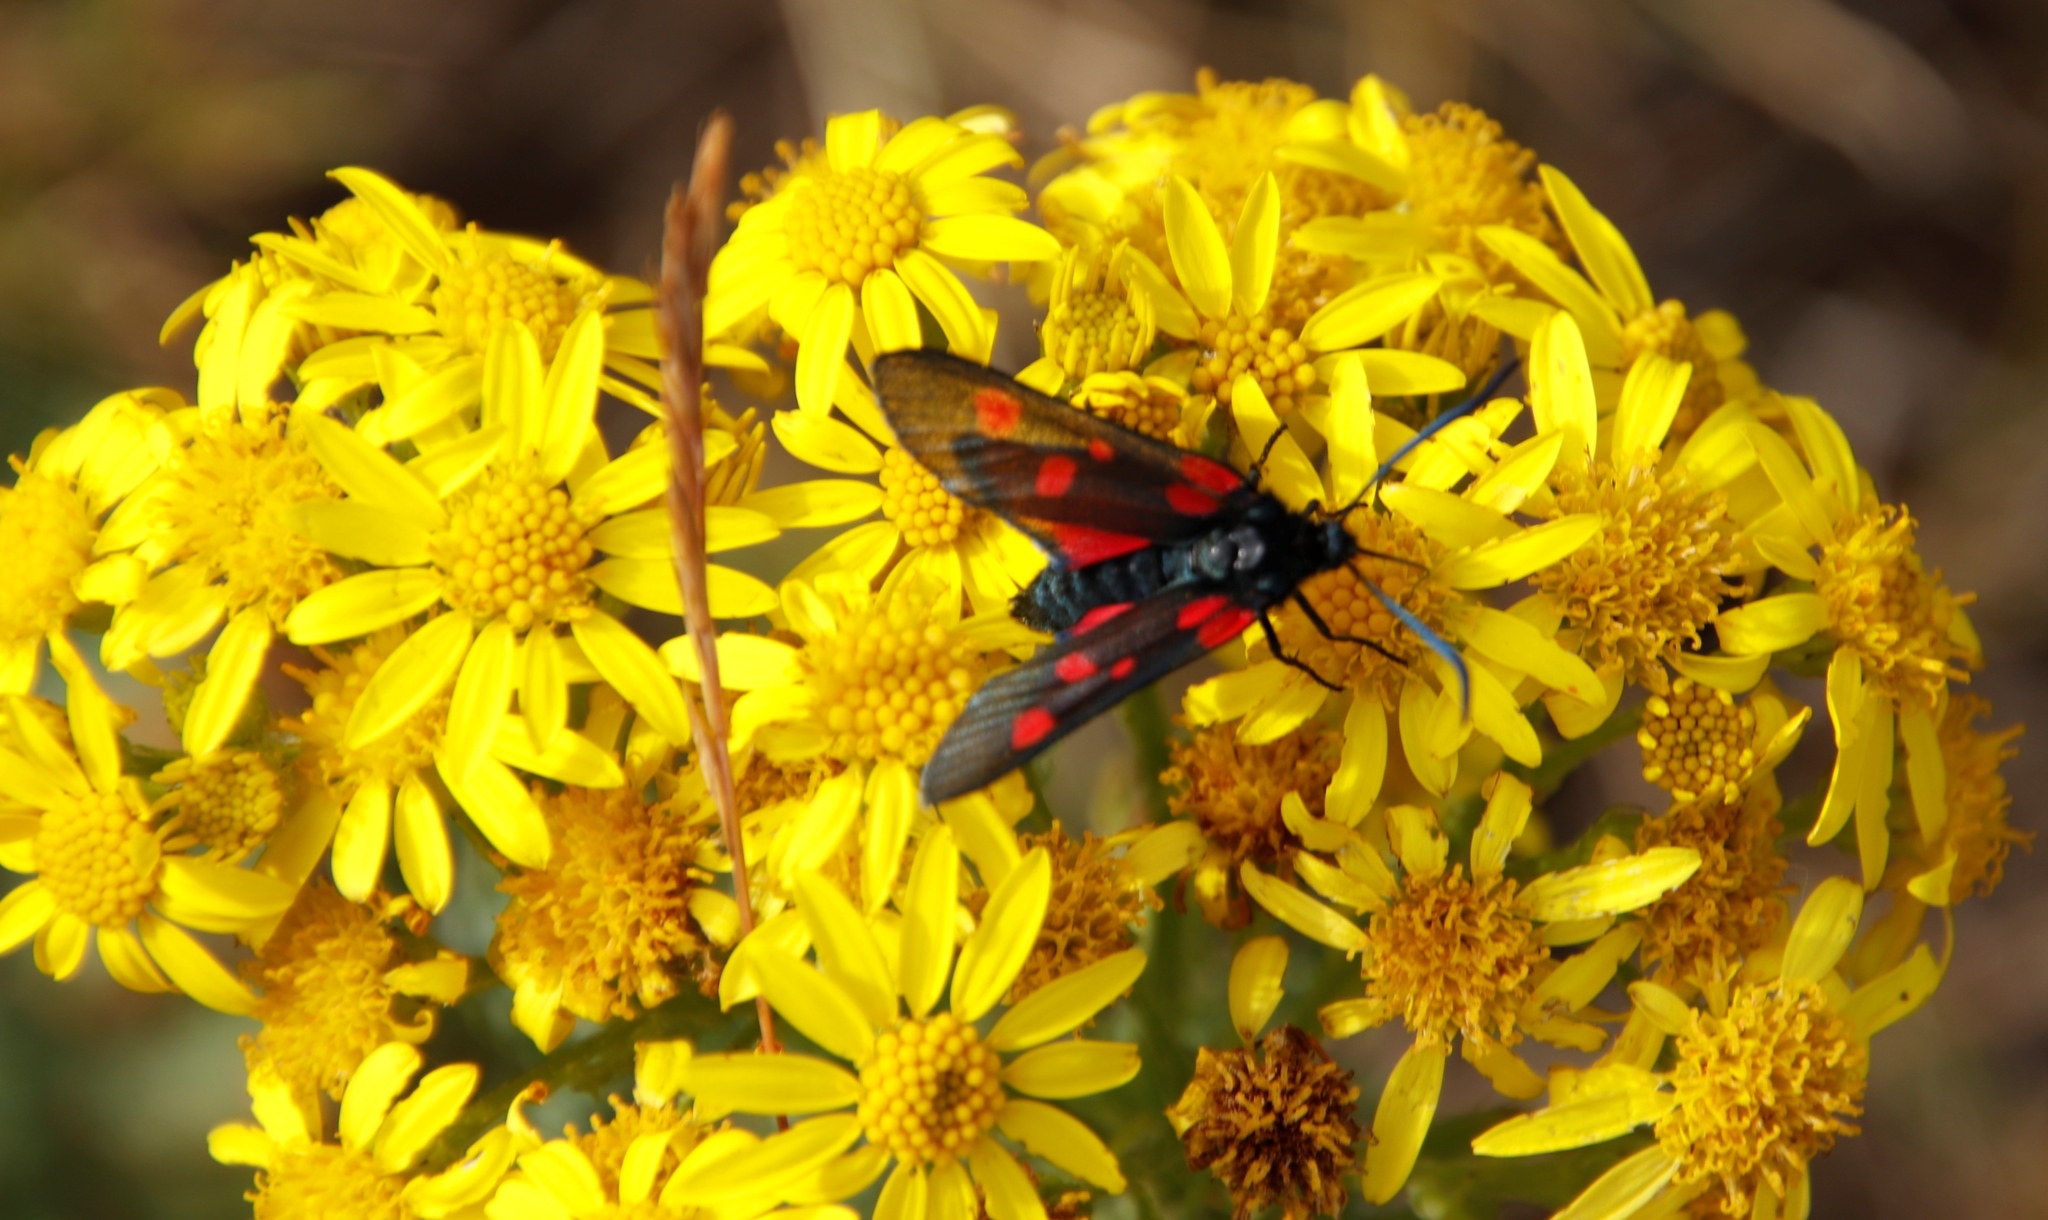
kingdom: Animalia
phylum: Arthropoda
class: Insecta
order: Lepidoptera
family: Zygaenidae
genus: Zygaena
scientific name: Zygaena lonicerae
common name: Narrow-bordered five-spot burnet
